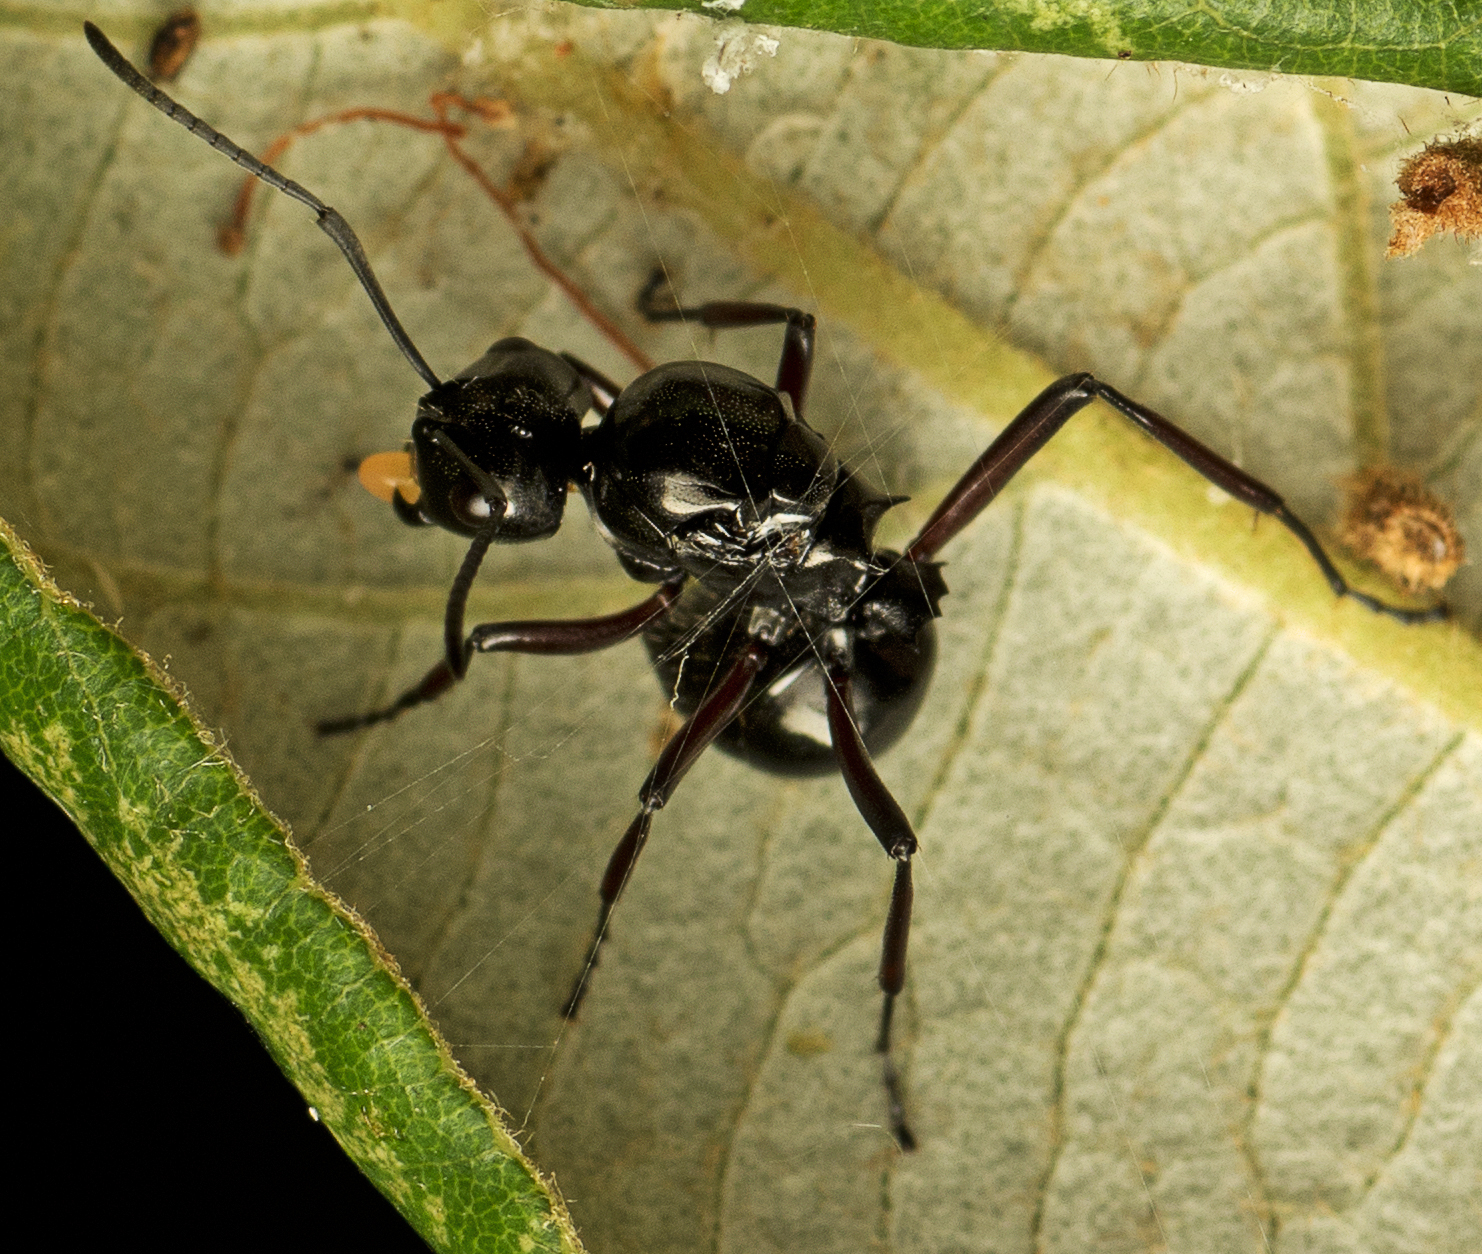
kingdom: Animalia
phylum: Arthropoda
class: Insecta
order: Hymenoptera
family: Formicidae
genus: Polyrhachis
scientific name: Polyrhachis australis
